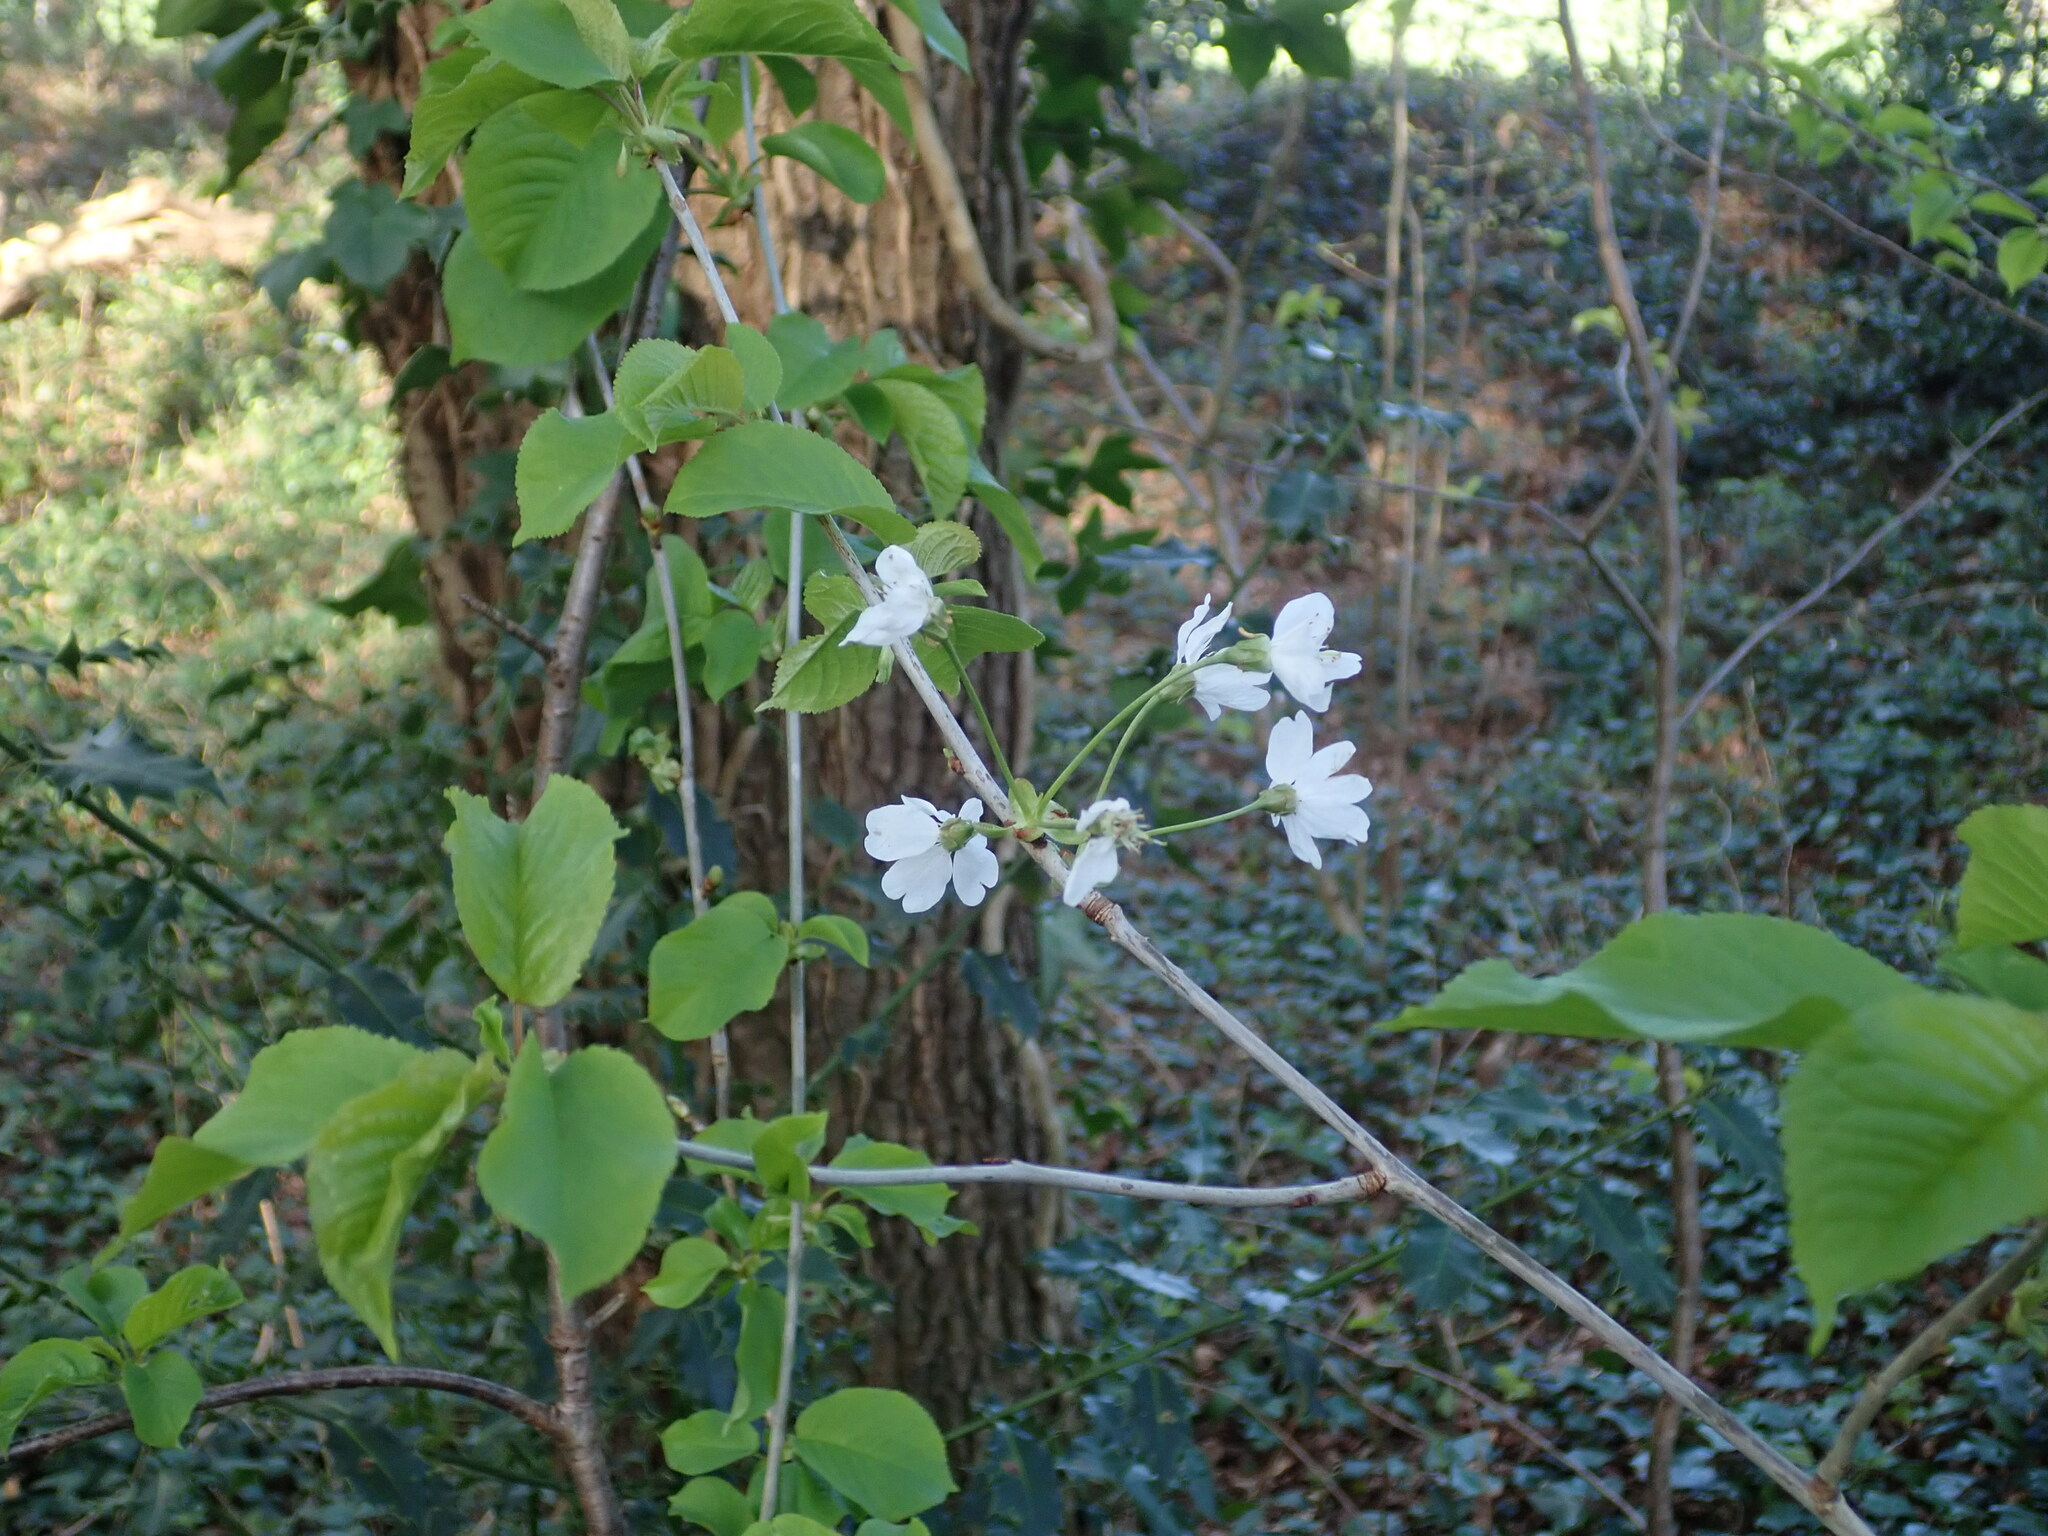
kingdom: Plantae
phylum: Tracheophyta
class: Magnoliopsida
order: Rosales
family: Rosaceae
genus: Prunus
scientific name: Prunus avium
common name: Sweet cherry
